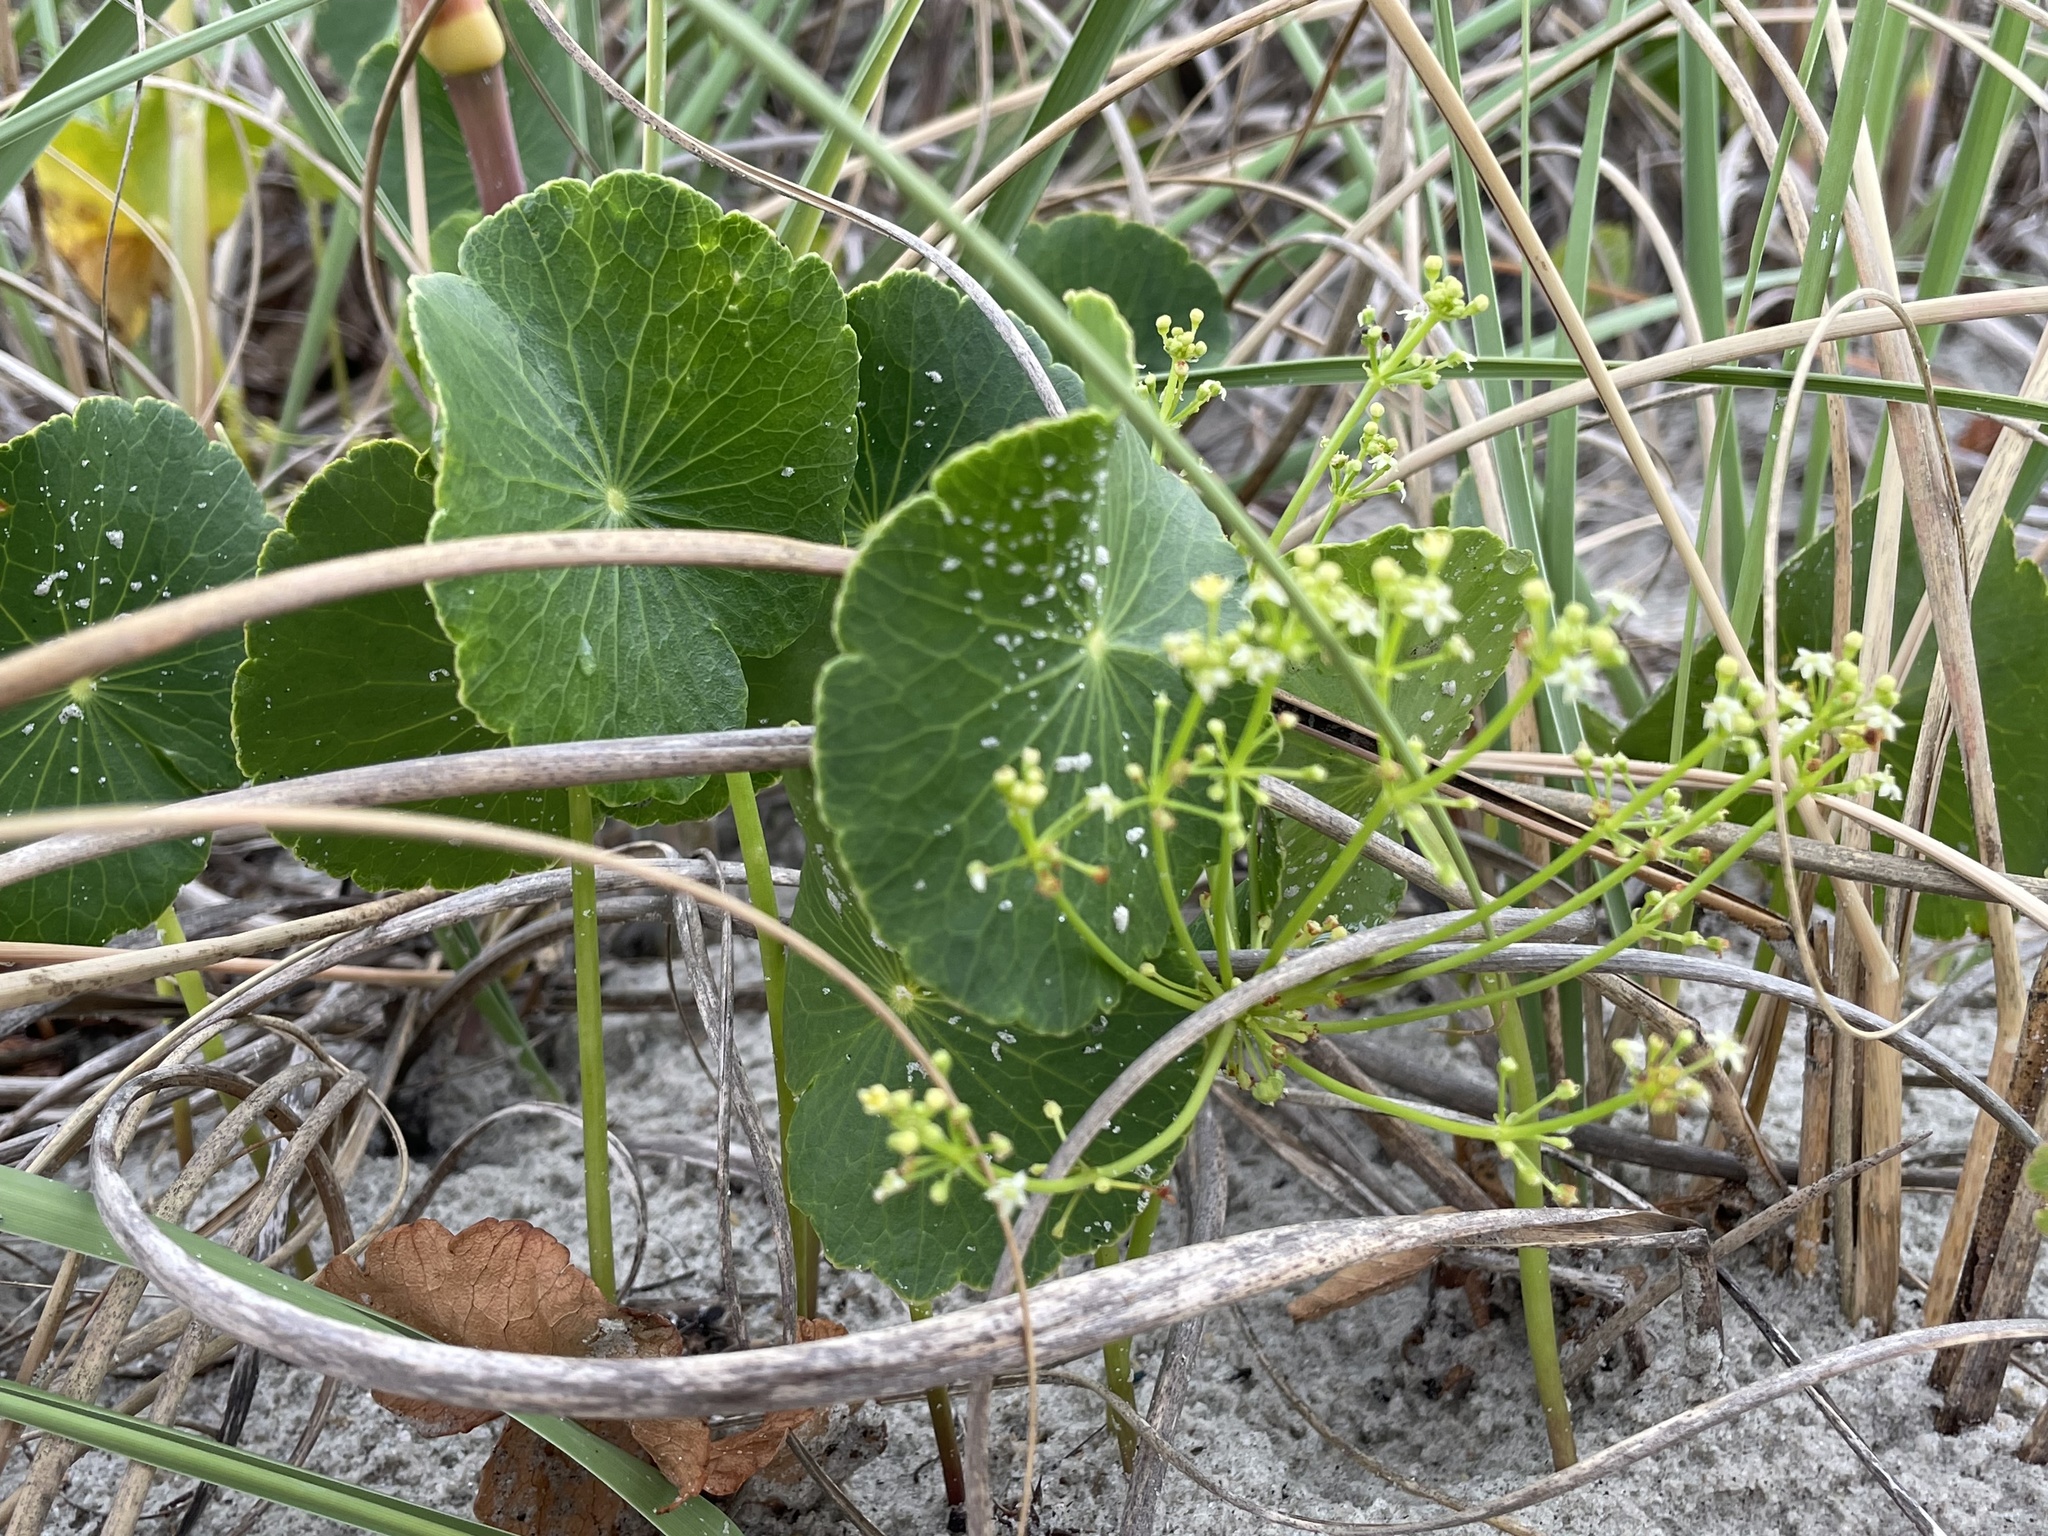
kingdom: Plantae
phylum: Tracheophyta
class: Magnoliopsida
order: Apiales
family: Araliaceae
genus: Hydrocotyle
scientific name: Hydrocotyle bonariensis
